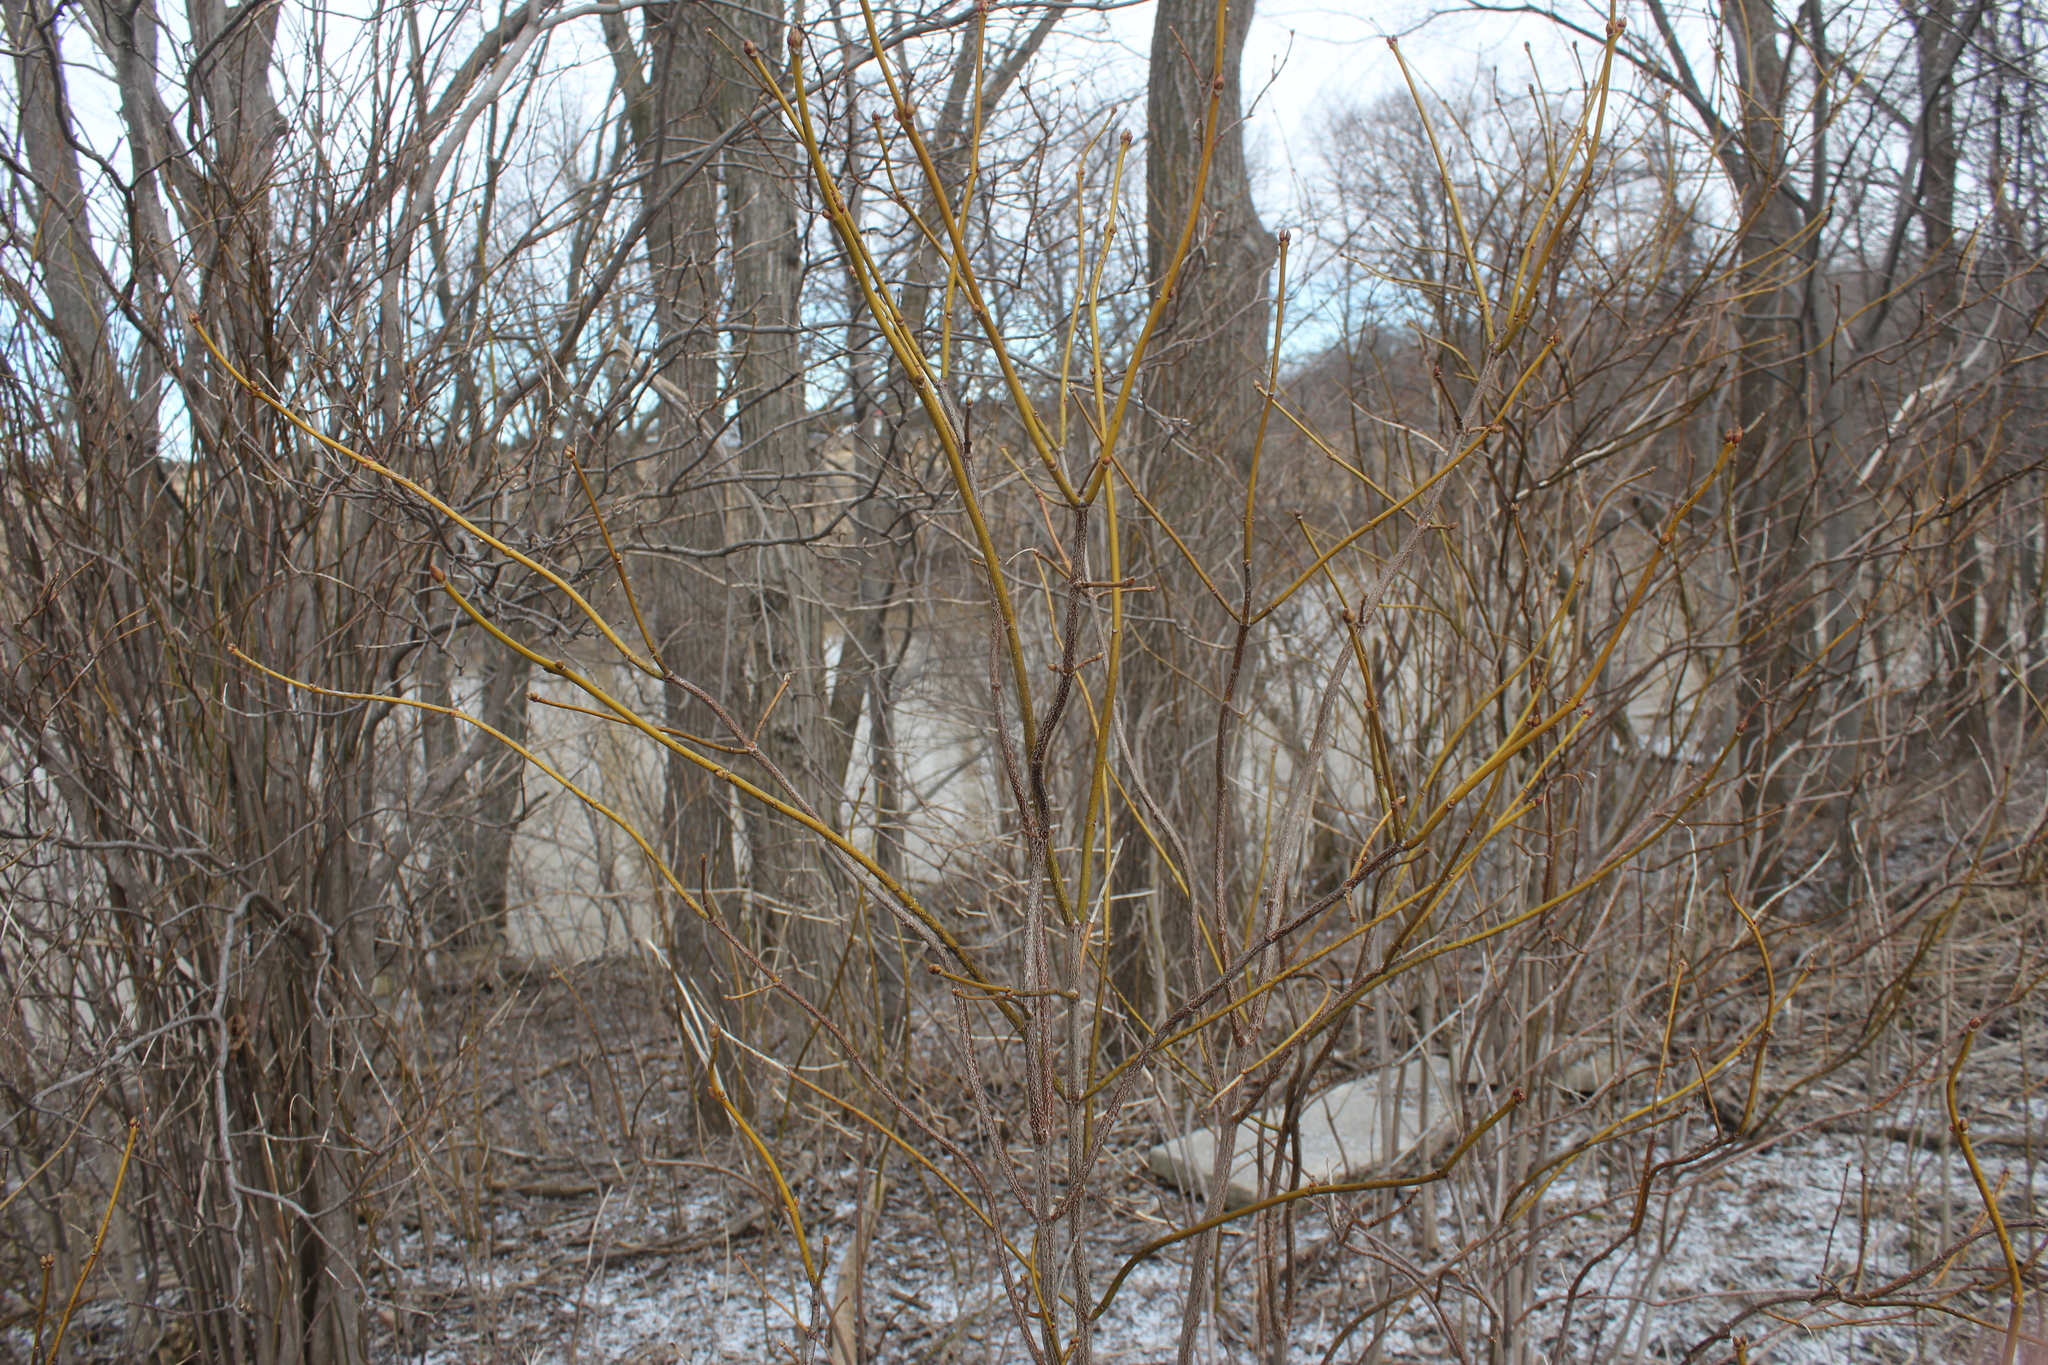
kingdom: Plantae
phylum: Tracheophyta
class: Magnoliopsida
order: Crossosomatales
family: Staphyleaceae
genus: Staphylea
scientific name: Staphylea trifolia
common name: American bladdernut
